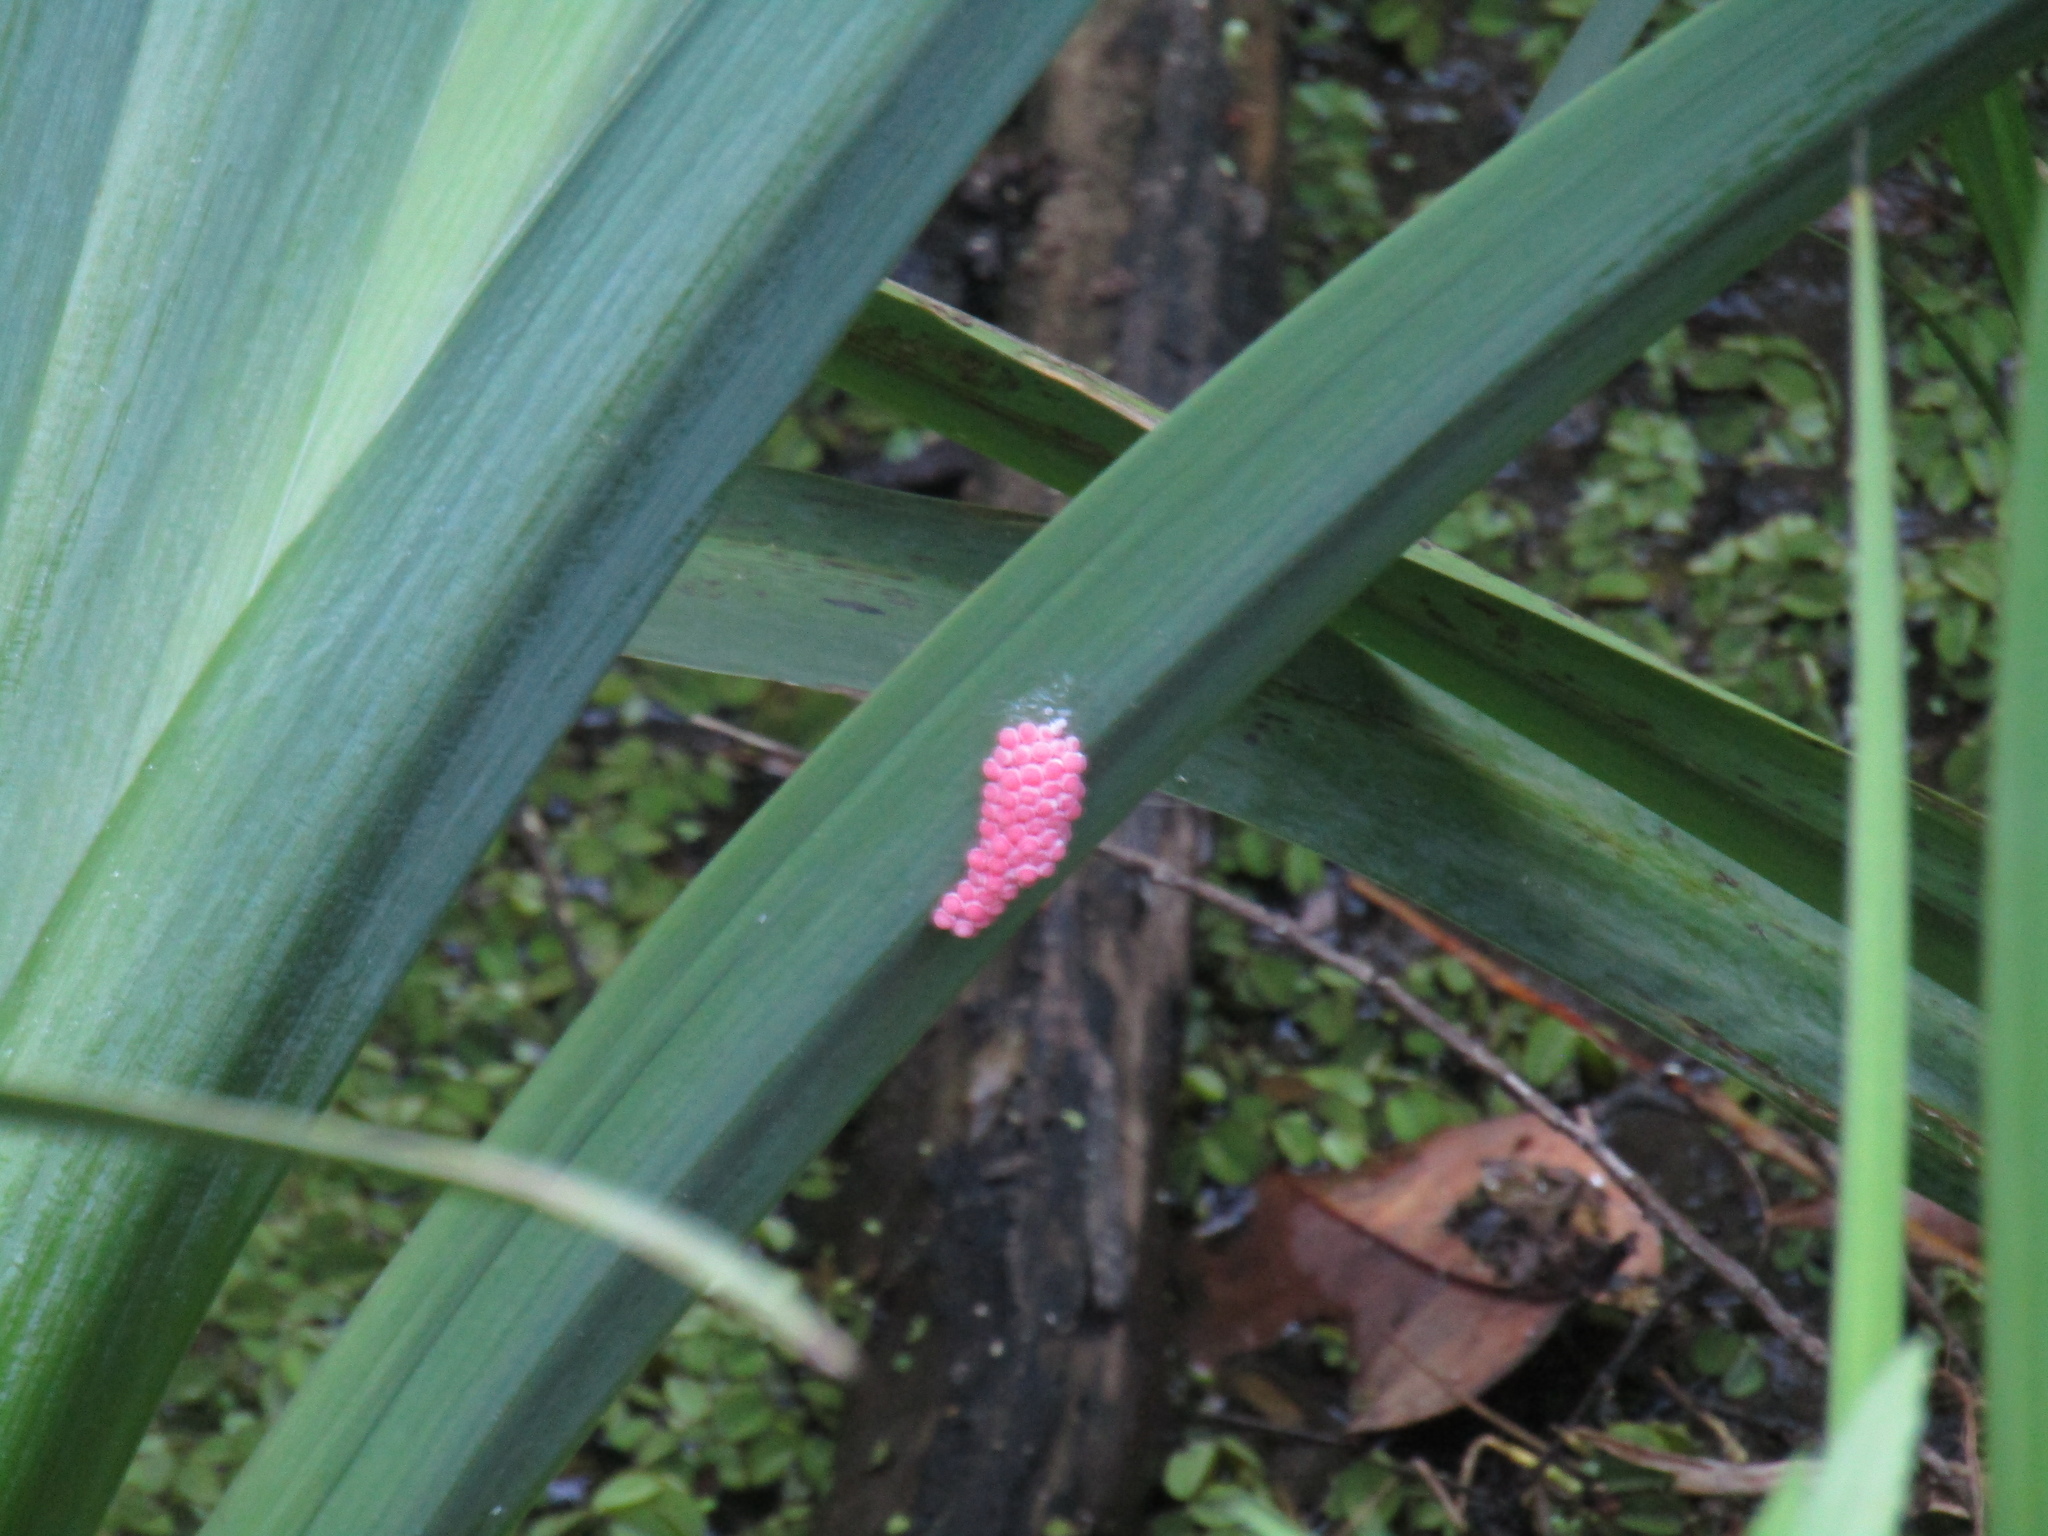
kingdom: Animalia
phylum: Mollusca
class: Gastropoda
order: Architaenioglossa
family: Ampullariidae
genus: Pomacea
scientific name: Pomacea canaliculata
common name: Channeled applesnail
